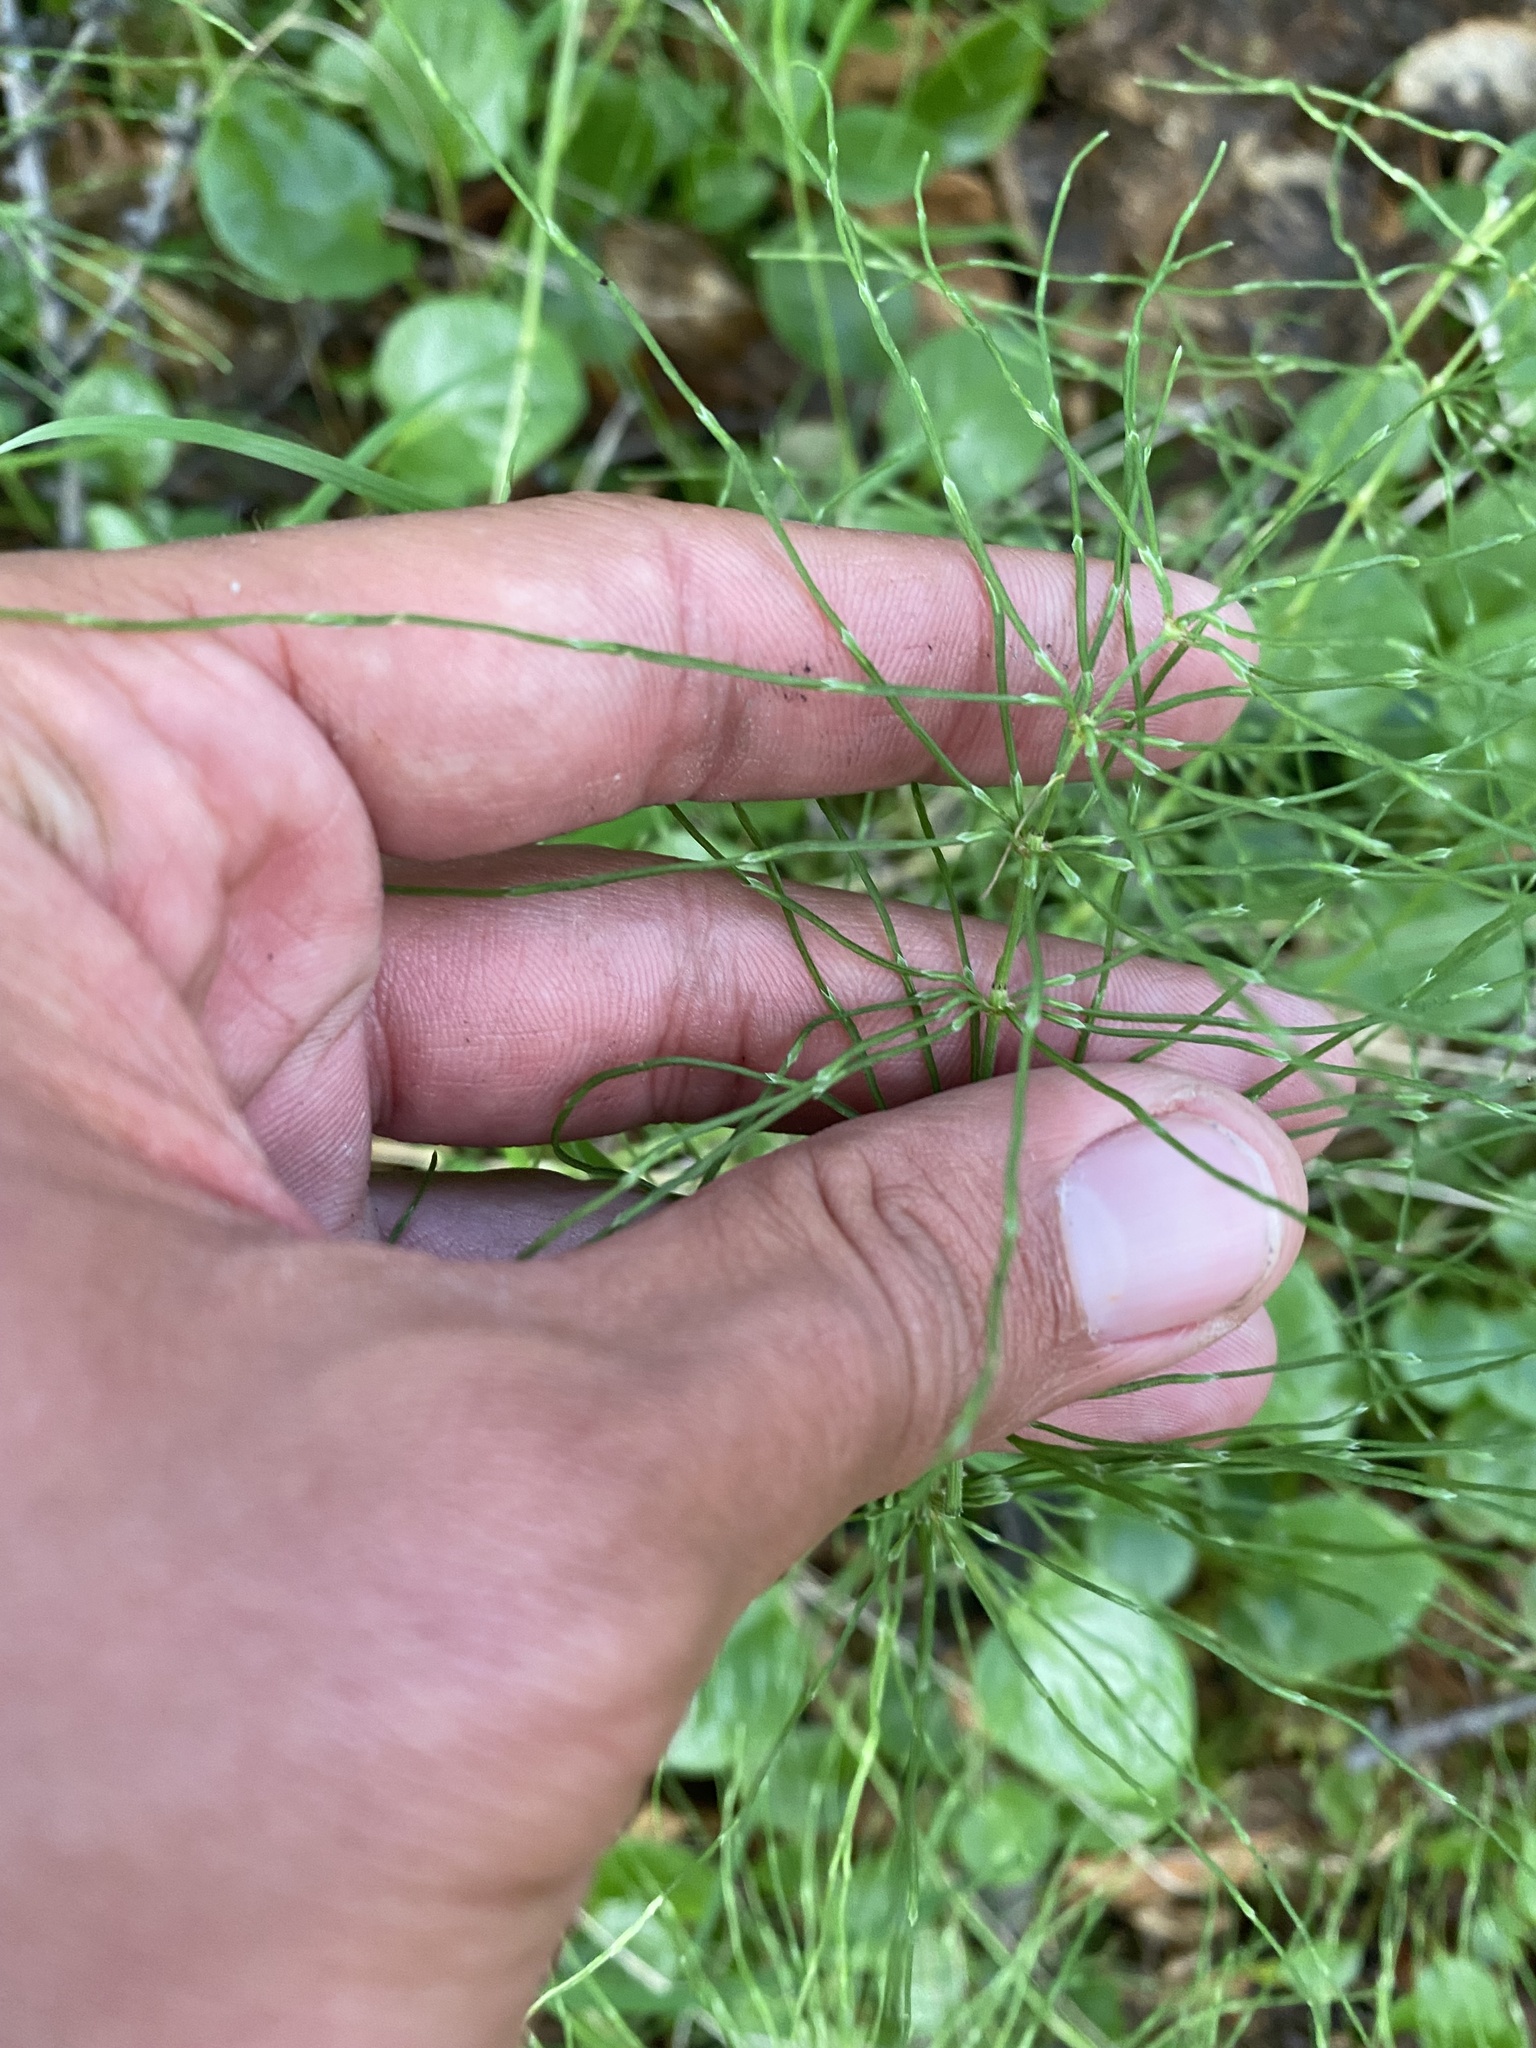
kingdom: Plantae
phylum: Tracheophyta
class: Polypodiopsida
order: Equisetales
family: Equisetaceae
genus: Equisetum
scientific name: Equisetum pratense
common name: Meadow horsetail
